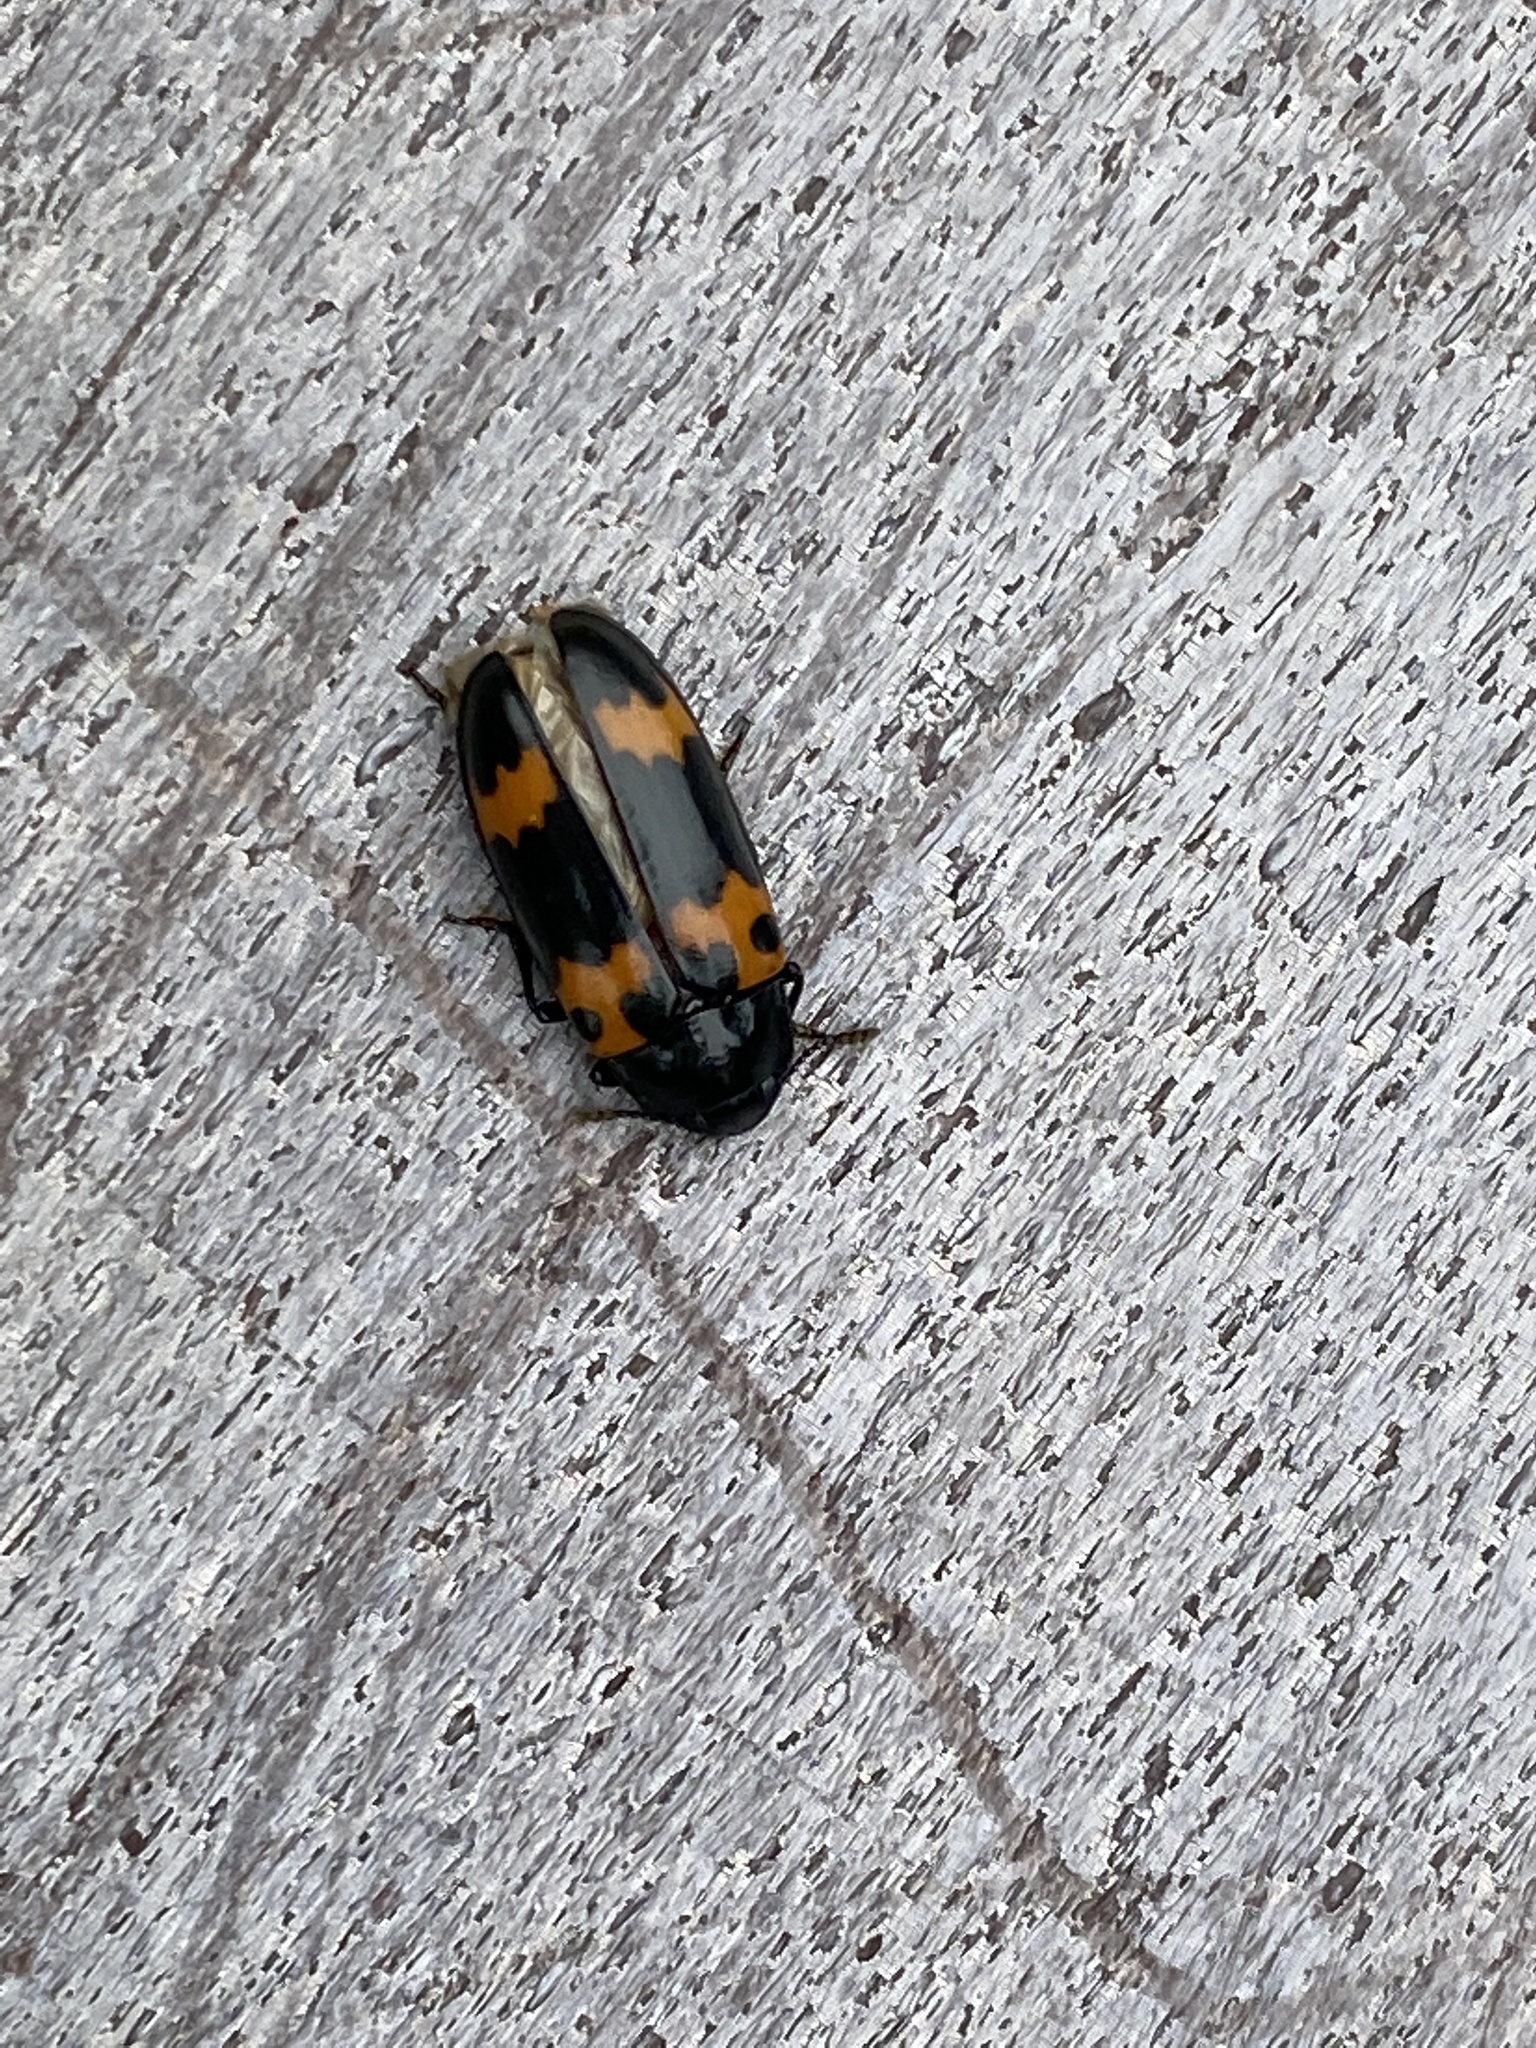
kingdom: Animalia
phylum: Arthropoda
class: Insecta
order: Coleoptera
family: Erotylidae
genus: Megalodacne
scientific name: Megalodacne fasciata
